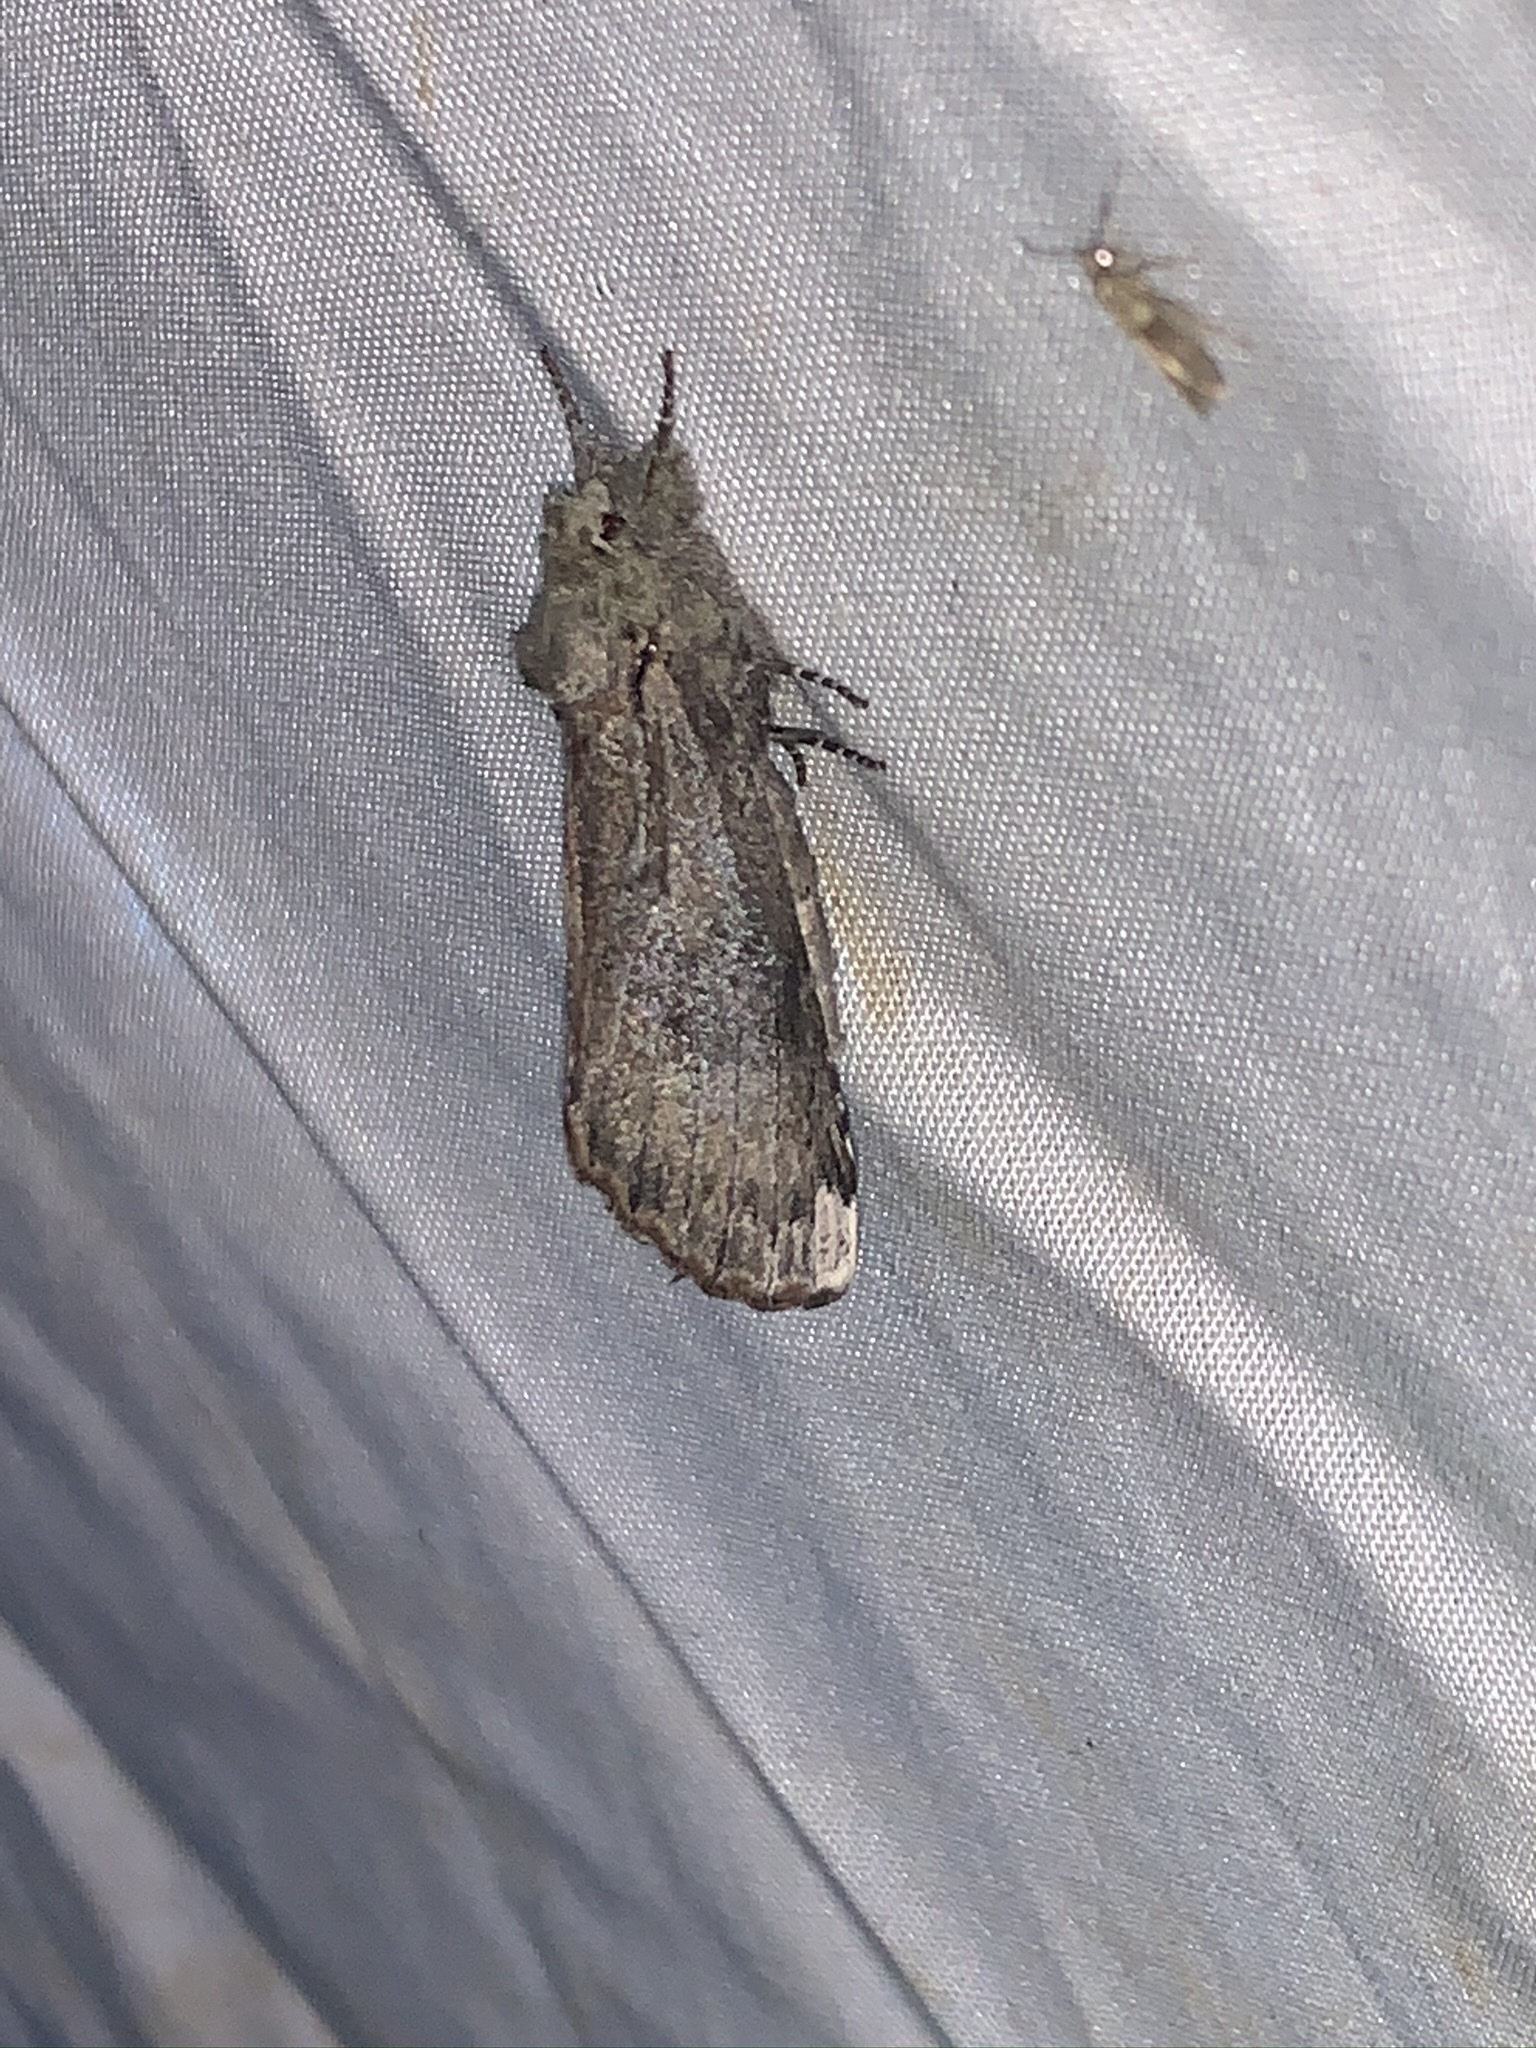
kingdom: Animalia
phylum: Arthropoda
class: Insecta
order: Lepidoptera
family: Notodontidae
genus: Schizura
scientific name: Schizura
